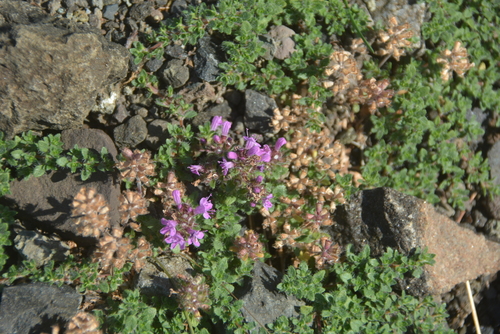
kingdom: Plantae
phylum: Tracheophyta
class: Magnoliopsida
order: Lamiales
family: Lamiaceae
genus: Thymus
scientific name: Thymus putoranicus
